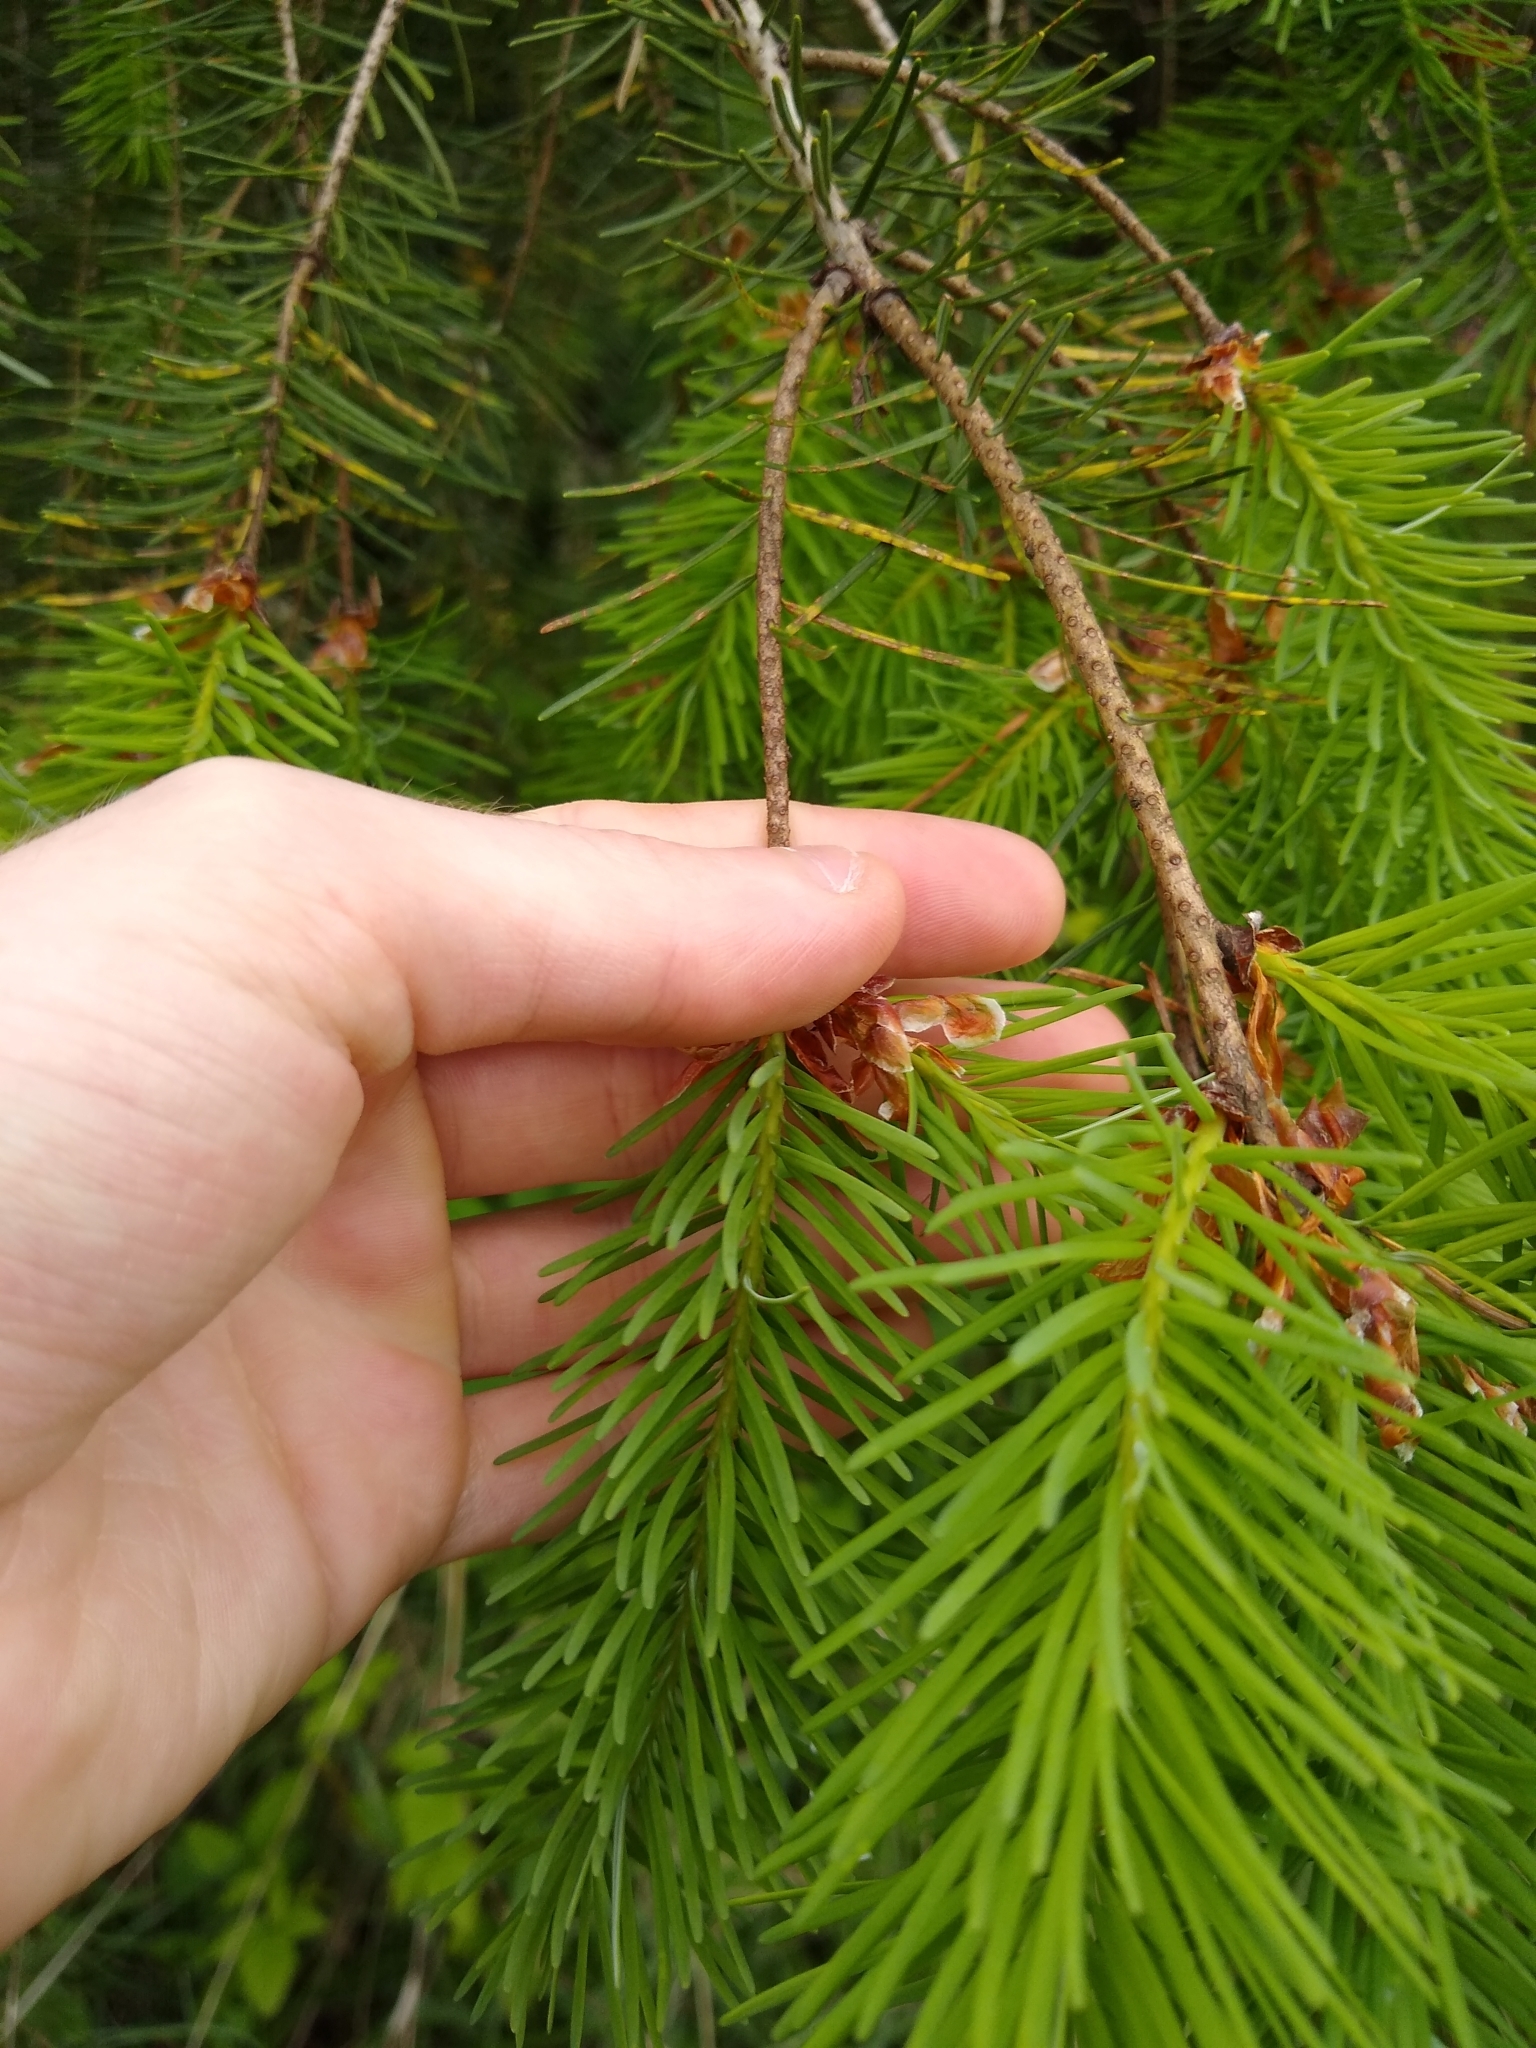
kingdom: Plantae
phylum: Tracheophyta
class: Pinopsida
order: Pinales
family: Pinaceae
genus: Pseudotsuga
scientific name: Pseudotsuga menziesii
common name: Douglas fir
